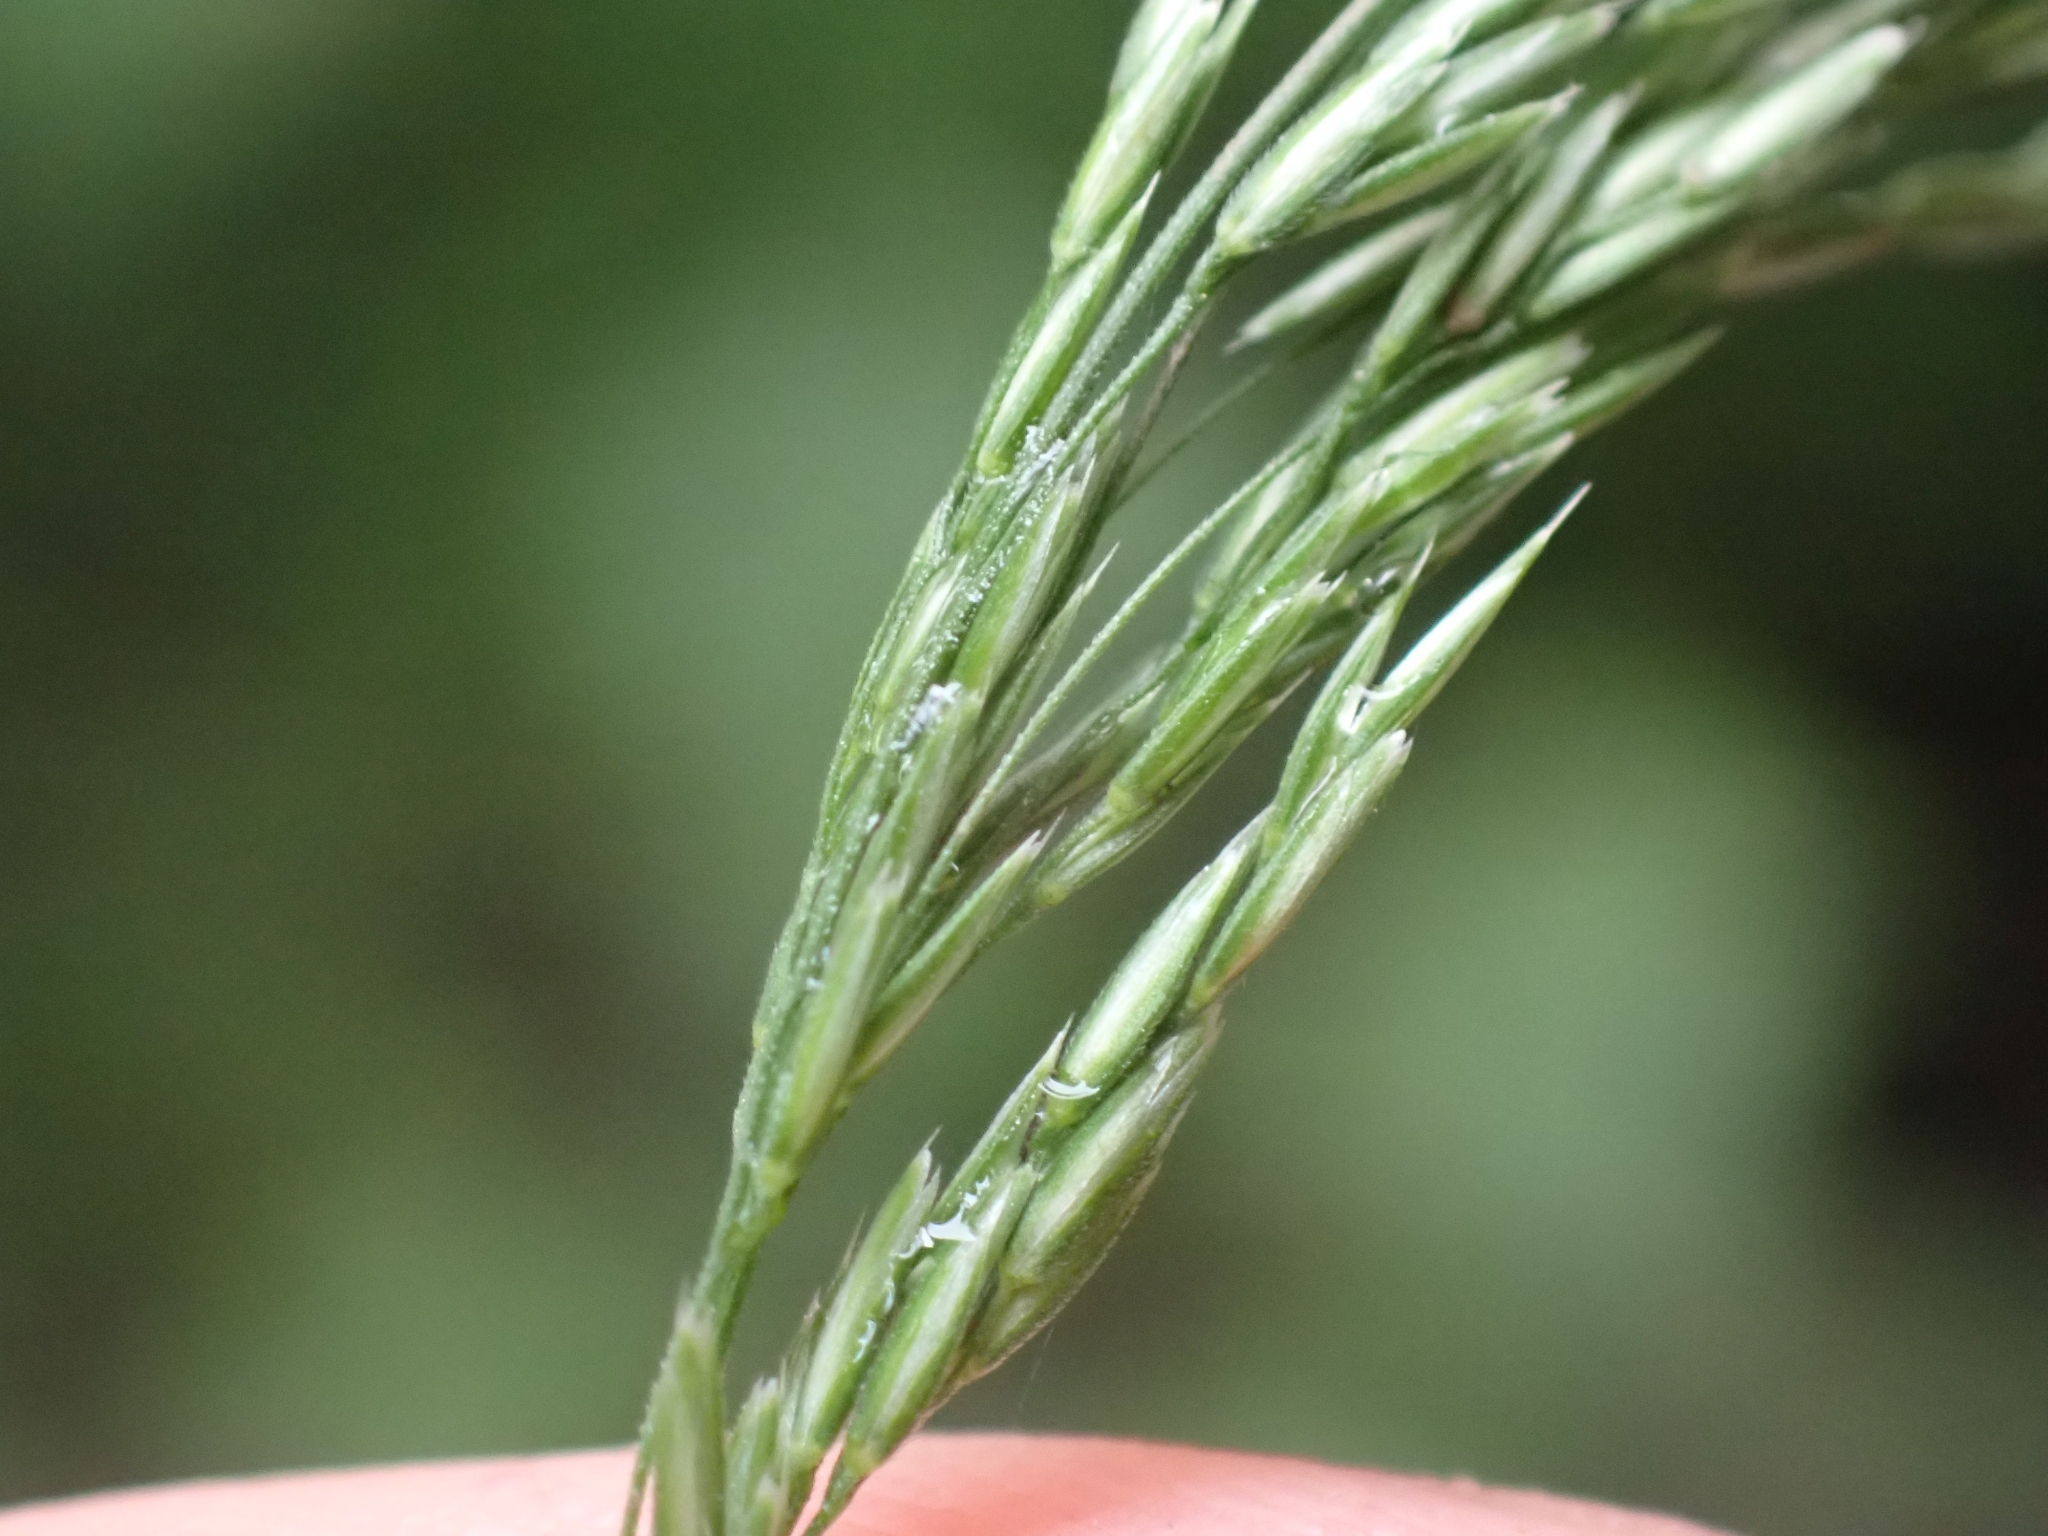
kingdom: Plantae
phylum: Tracheophyta
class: Liliopsida
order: Poales
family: Poaceae
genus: Cinna
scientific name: Cinna latifolia
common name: Drooping woodreed
